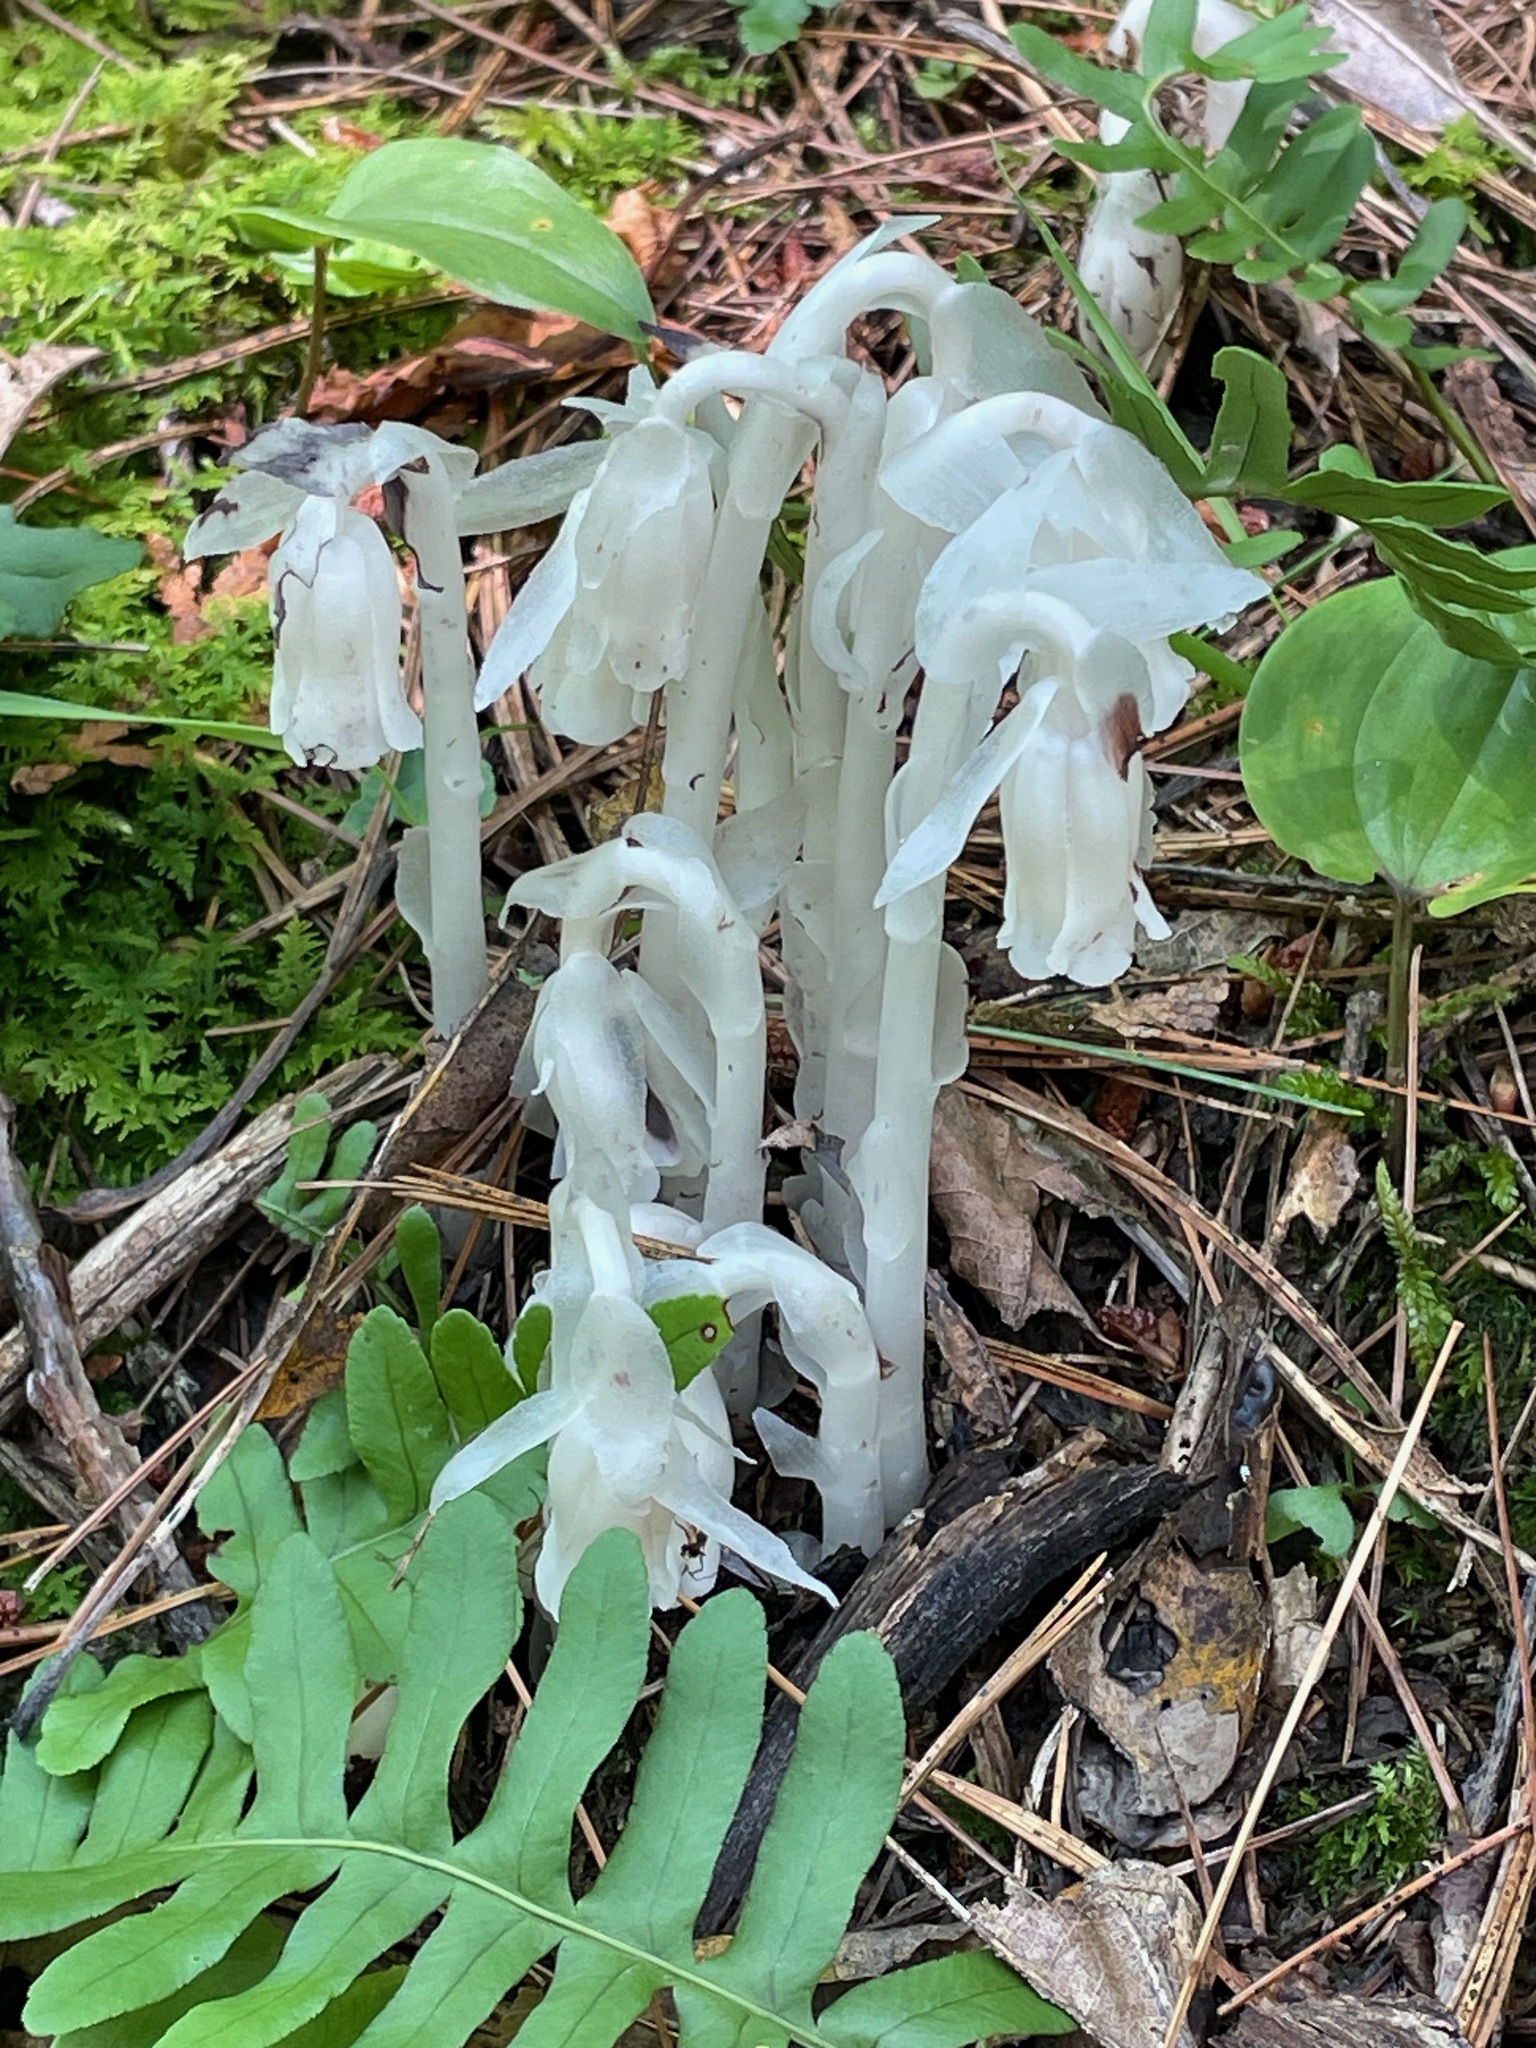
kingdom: Plantae
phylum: Tracheophyta
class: Magnoliopsida
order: Ericales
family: Ericaceae
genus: Monotropa
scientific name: Monotropa uniflora
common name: Convulsion root
